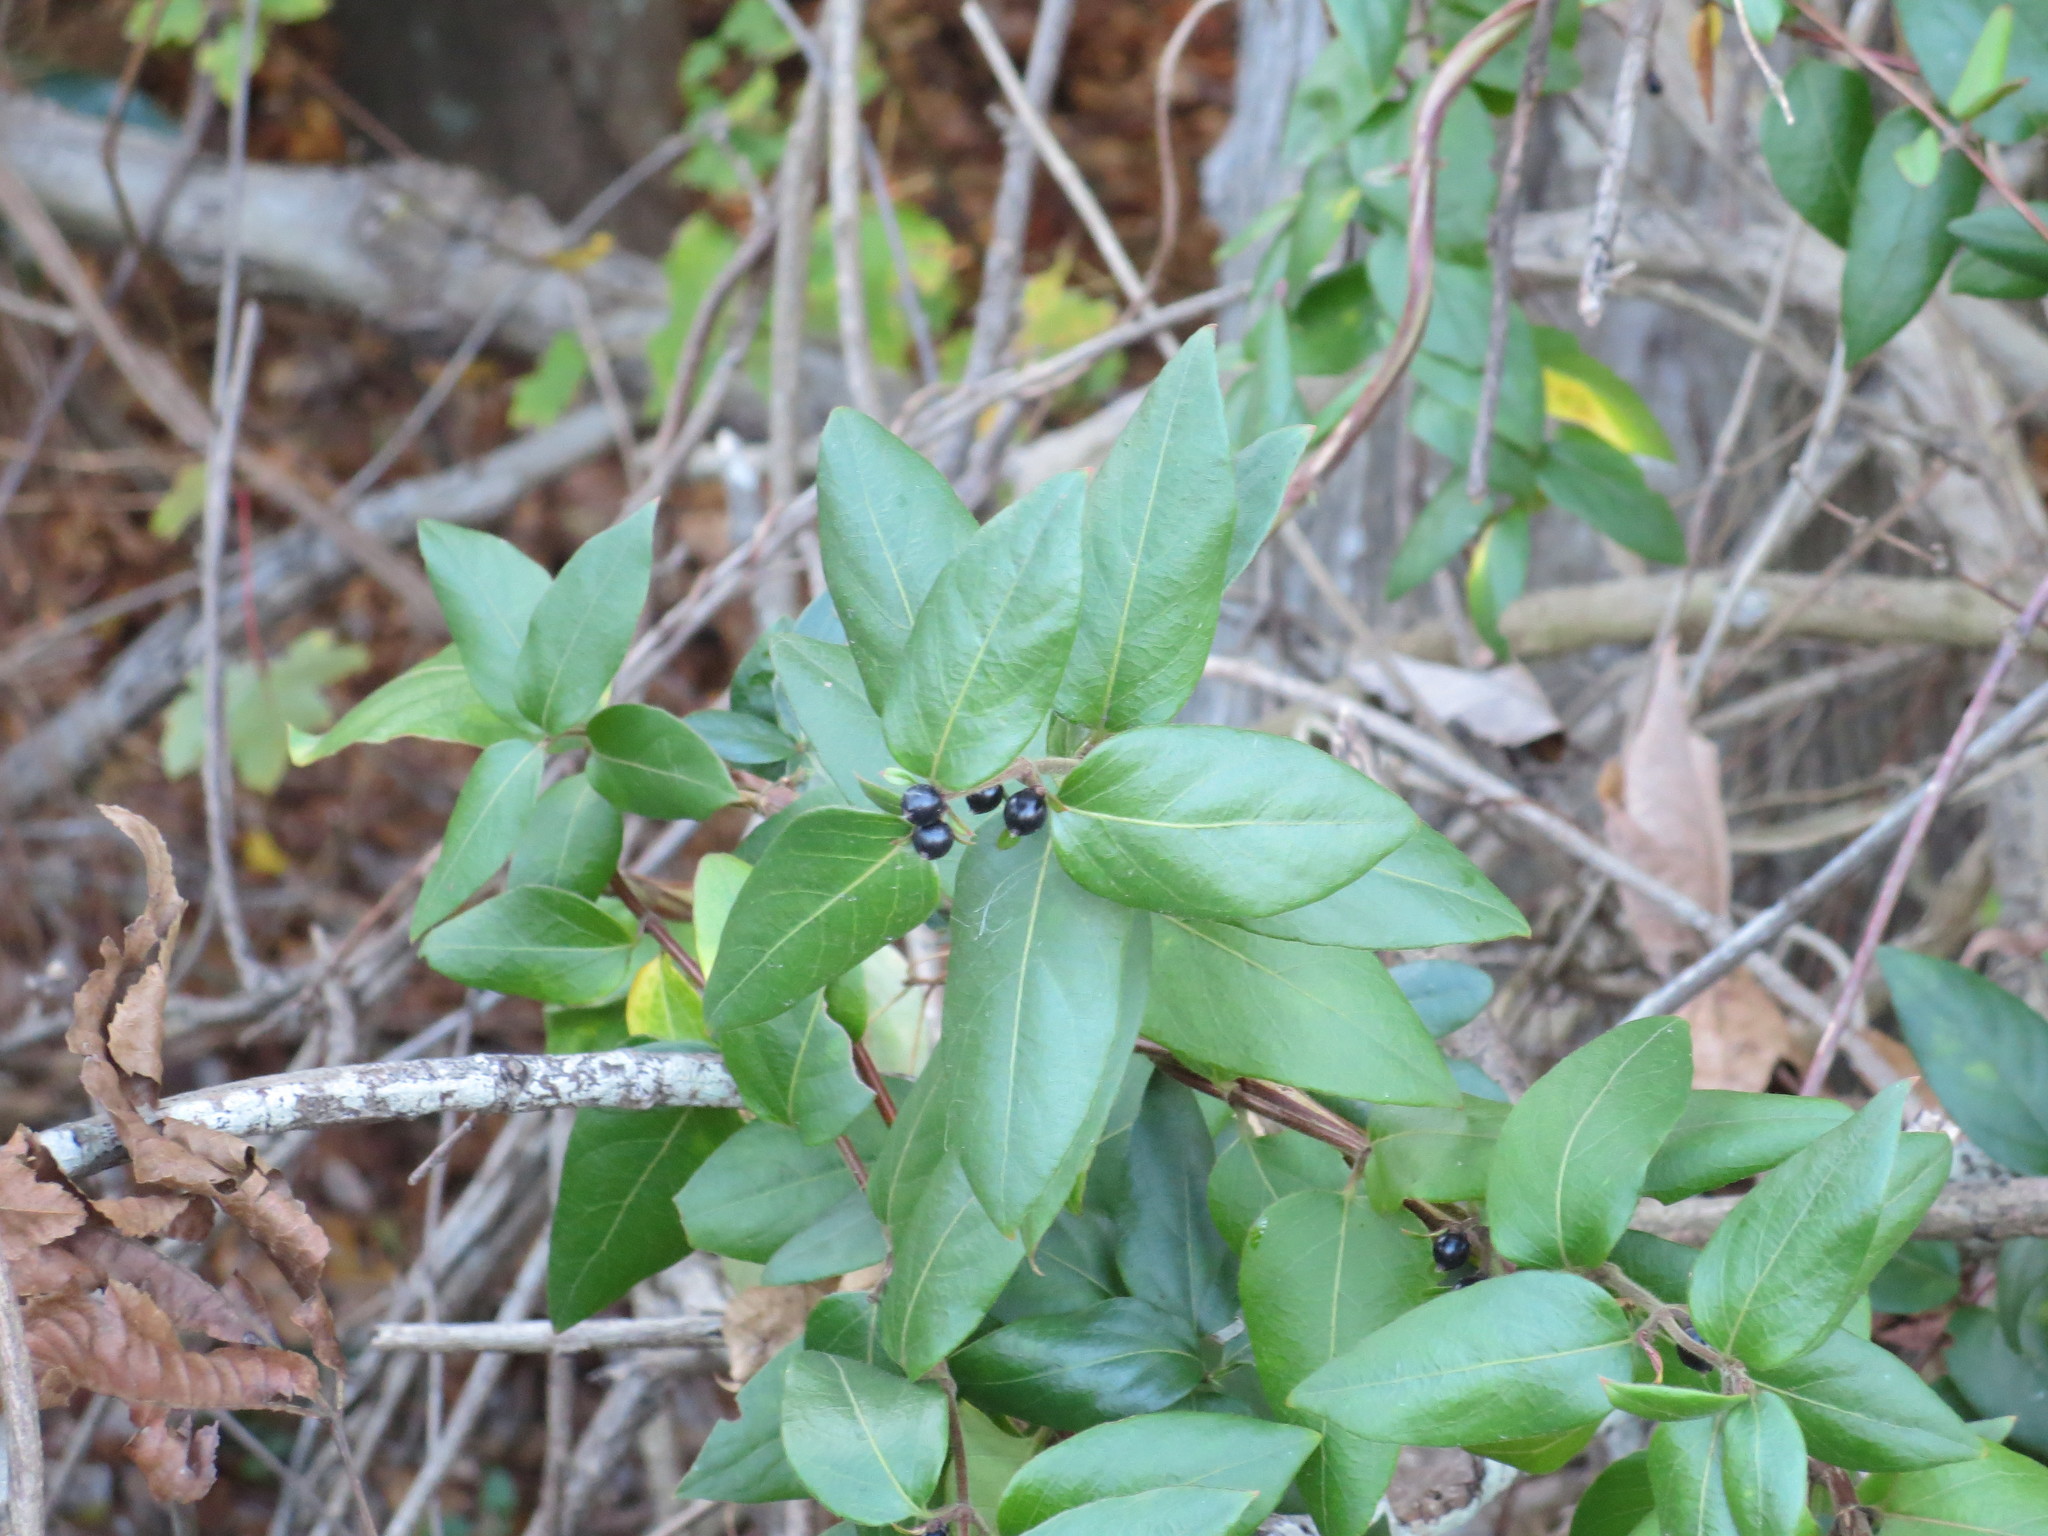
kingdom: Plantae
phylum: Tracheophyta
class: Magnoliopsida
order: Dipsacales
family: Caprifoliaceae
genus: Lonicera
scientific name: Lonicera japonica
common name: Japanese honeysuckle
